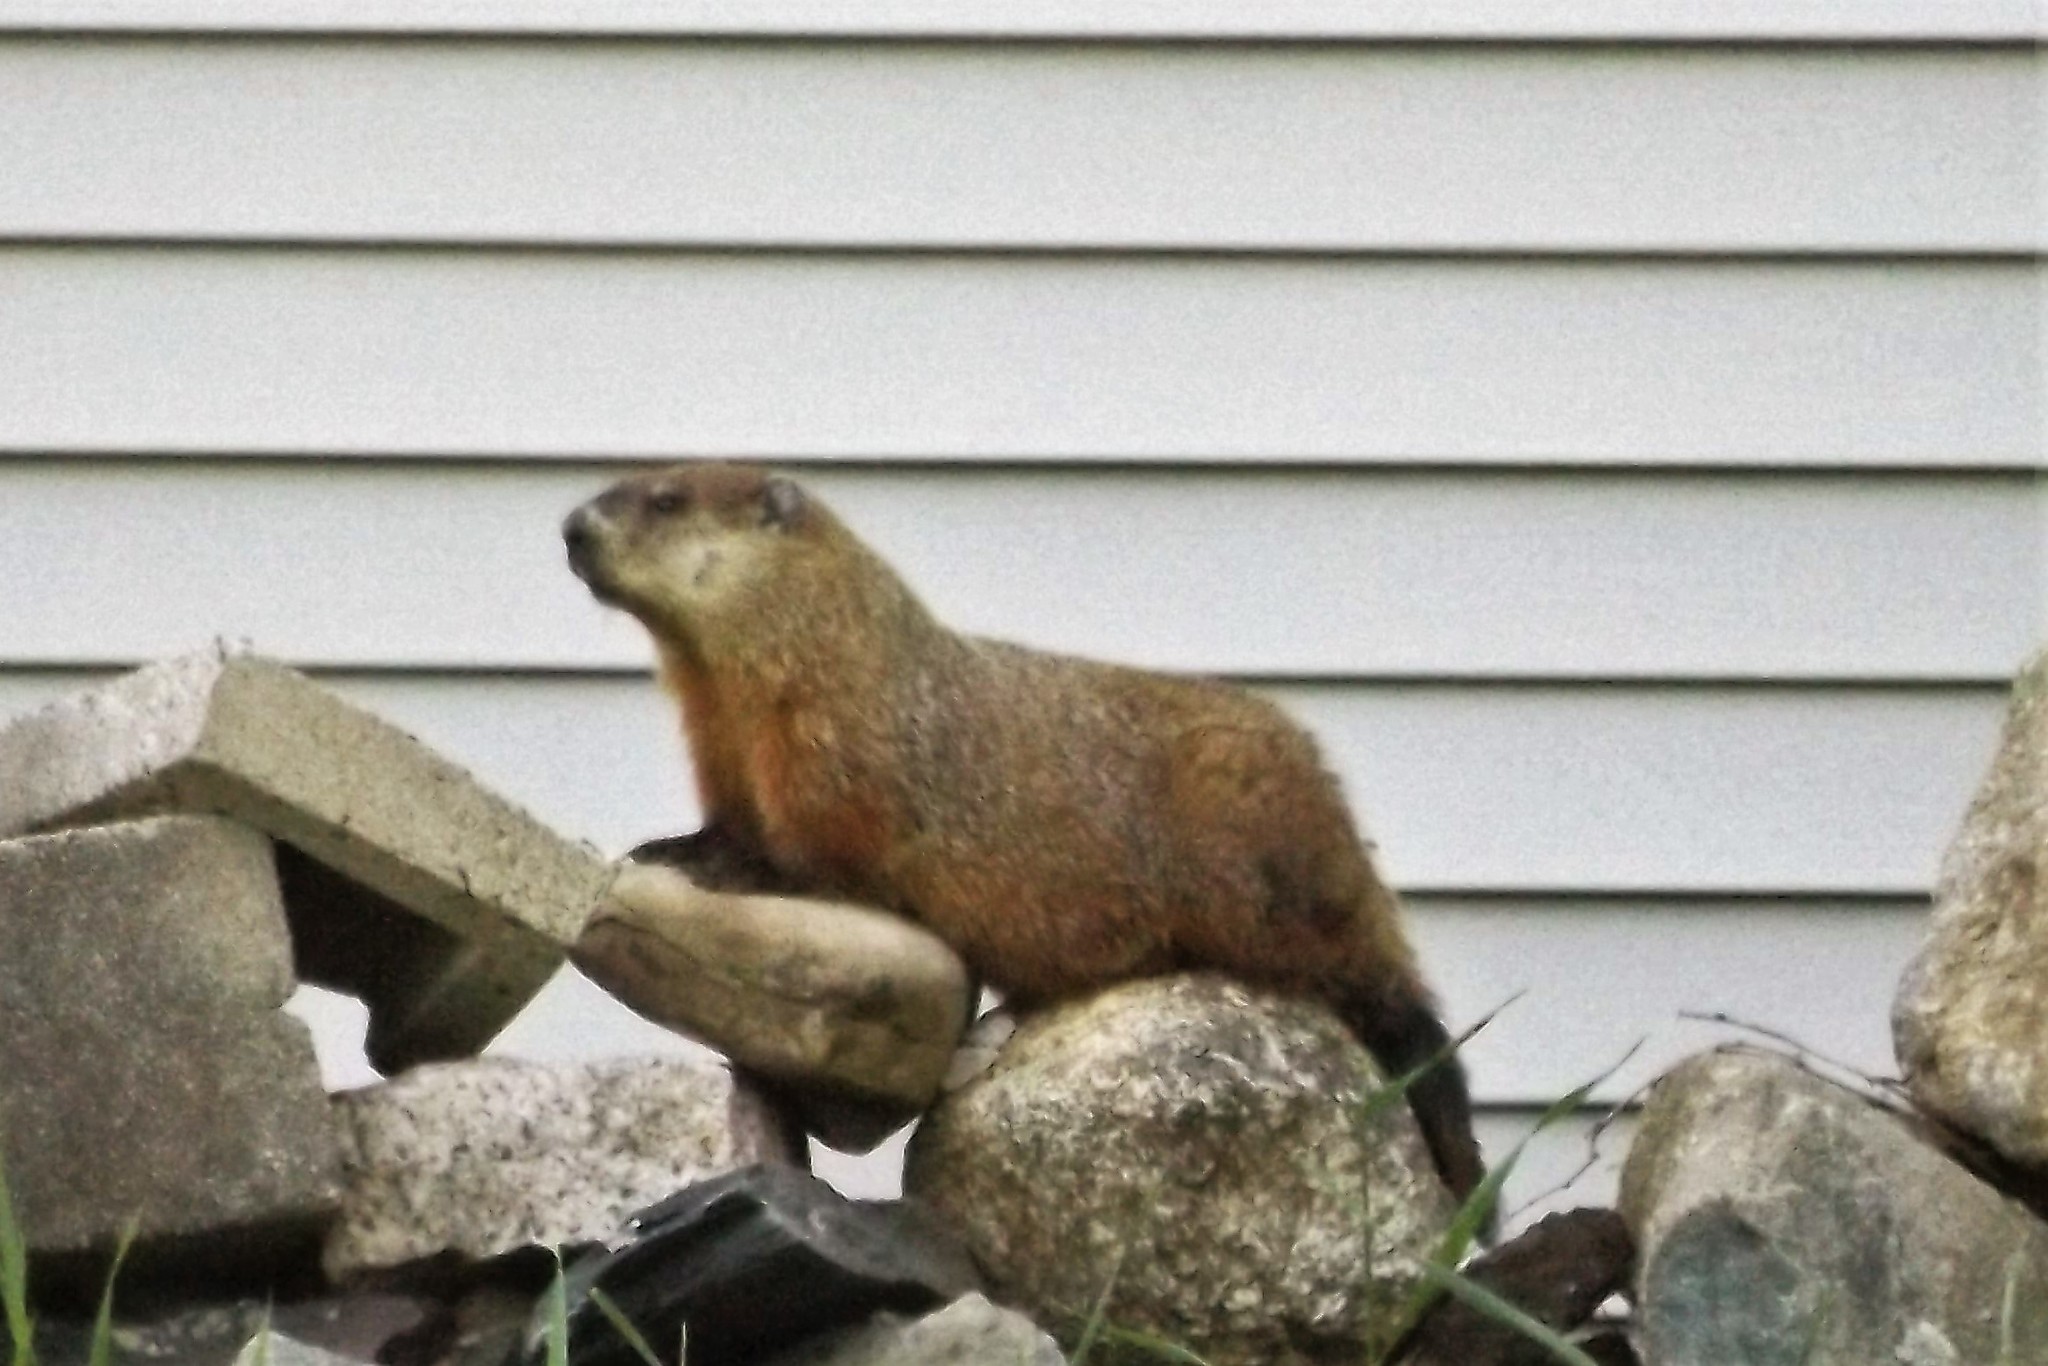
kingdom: Animalia
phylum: Chordata
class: Mammalia
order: Rodentia
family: Sciuridae
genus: Marmota
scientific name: Marmota monax
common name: Groundhog
